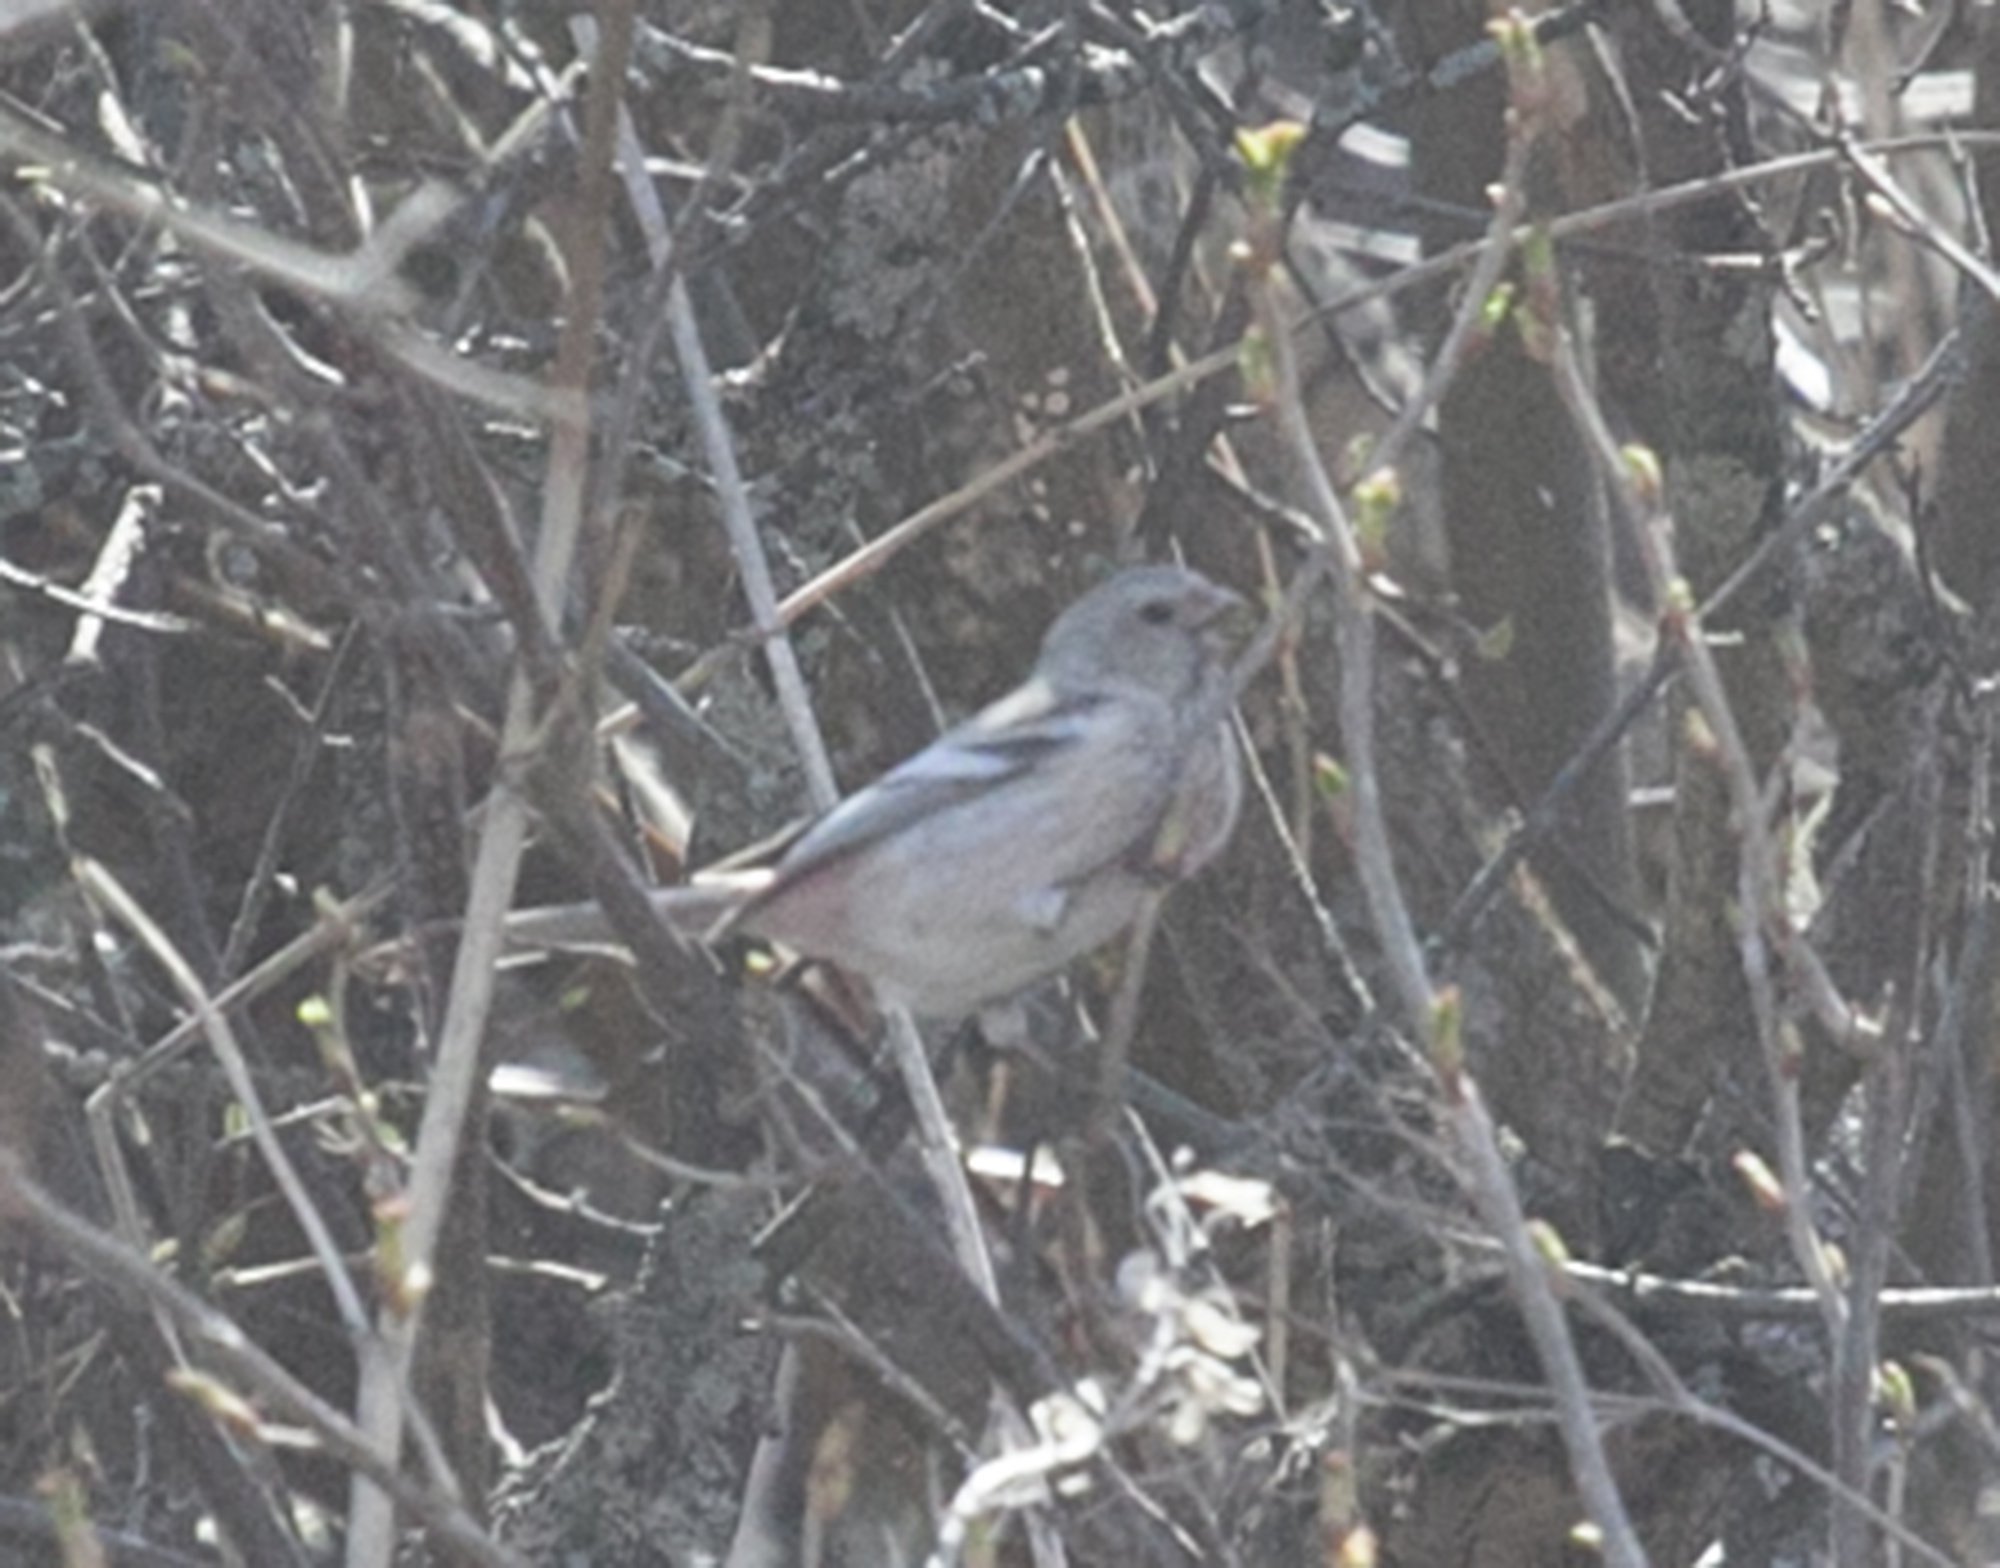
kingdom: Animalia
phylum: Chordata
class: Aves
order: Passeriformes
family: Fringillidae
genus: Carpodacus
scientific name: Carpodacus sibiricus
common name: Long-tailed rosefinch
